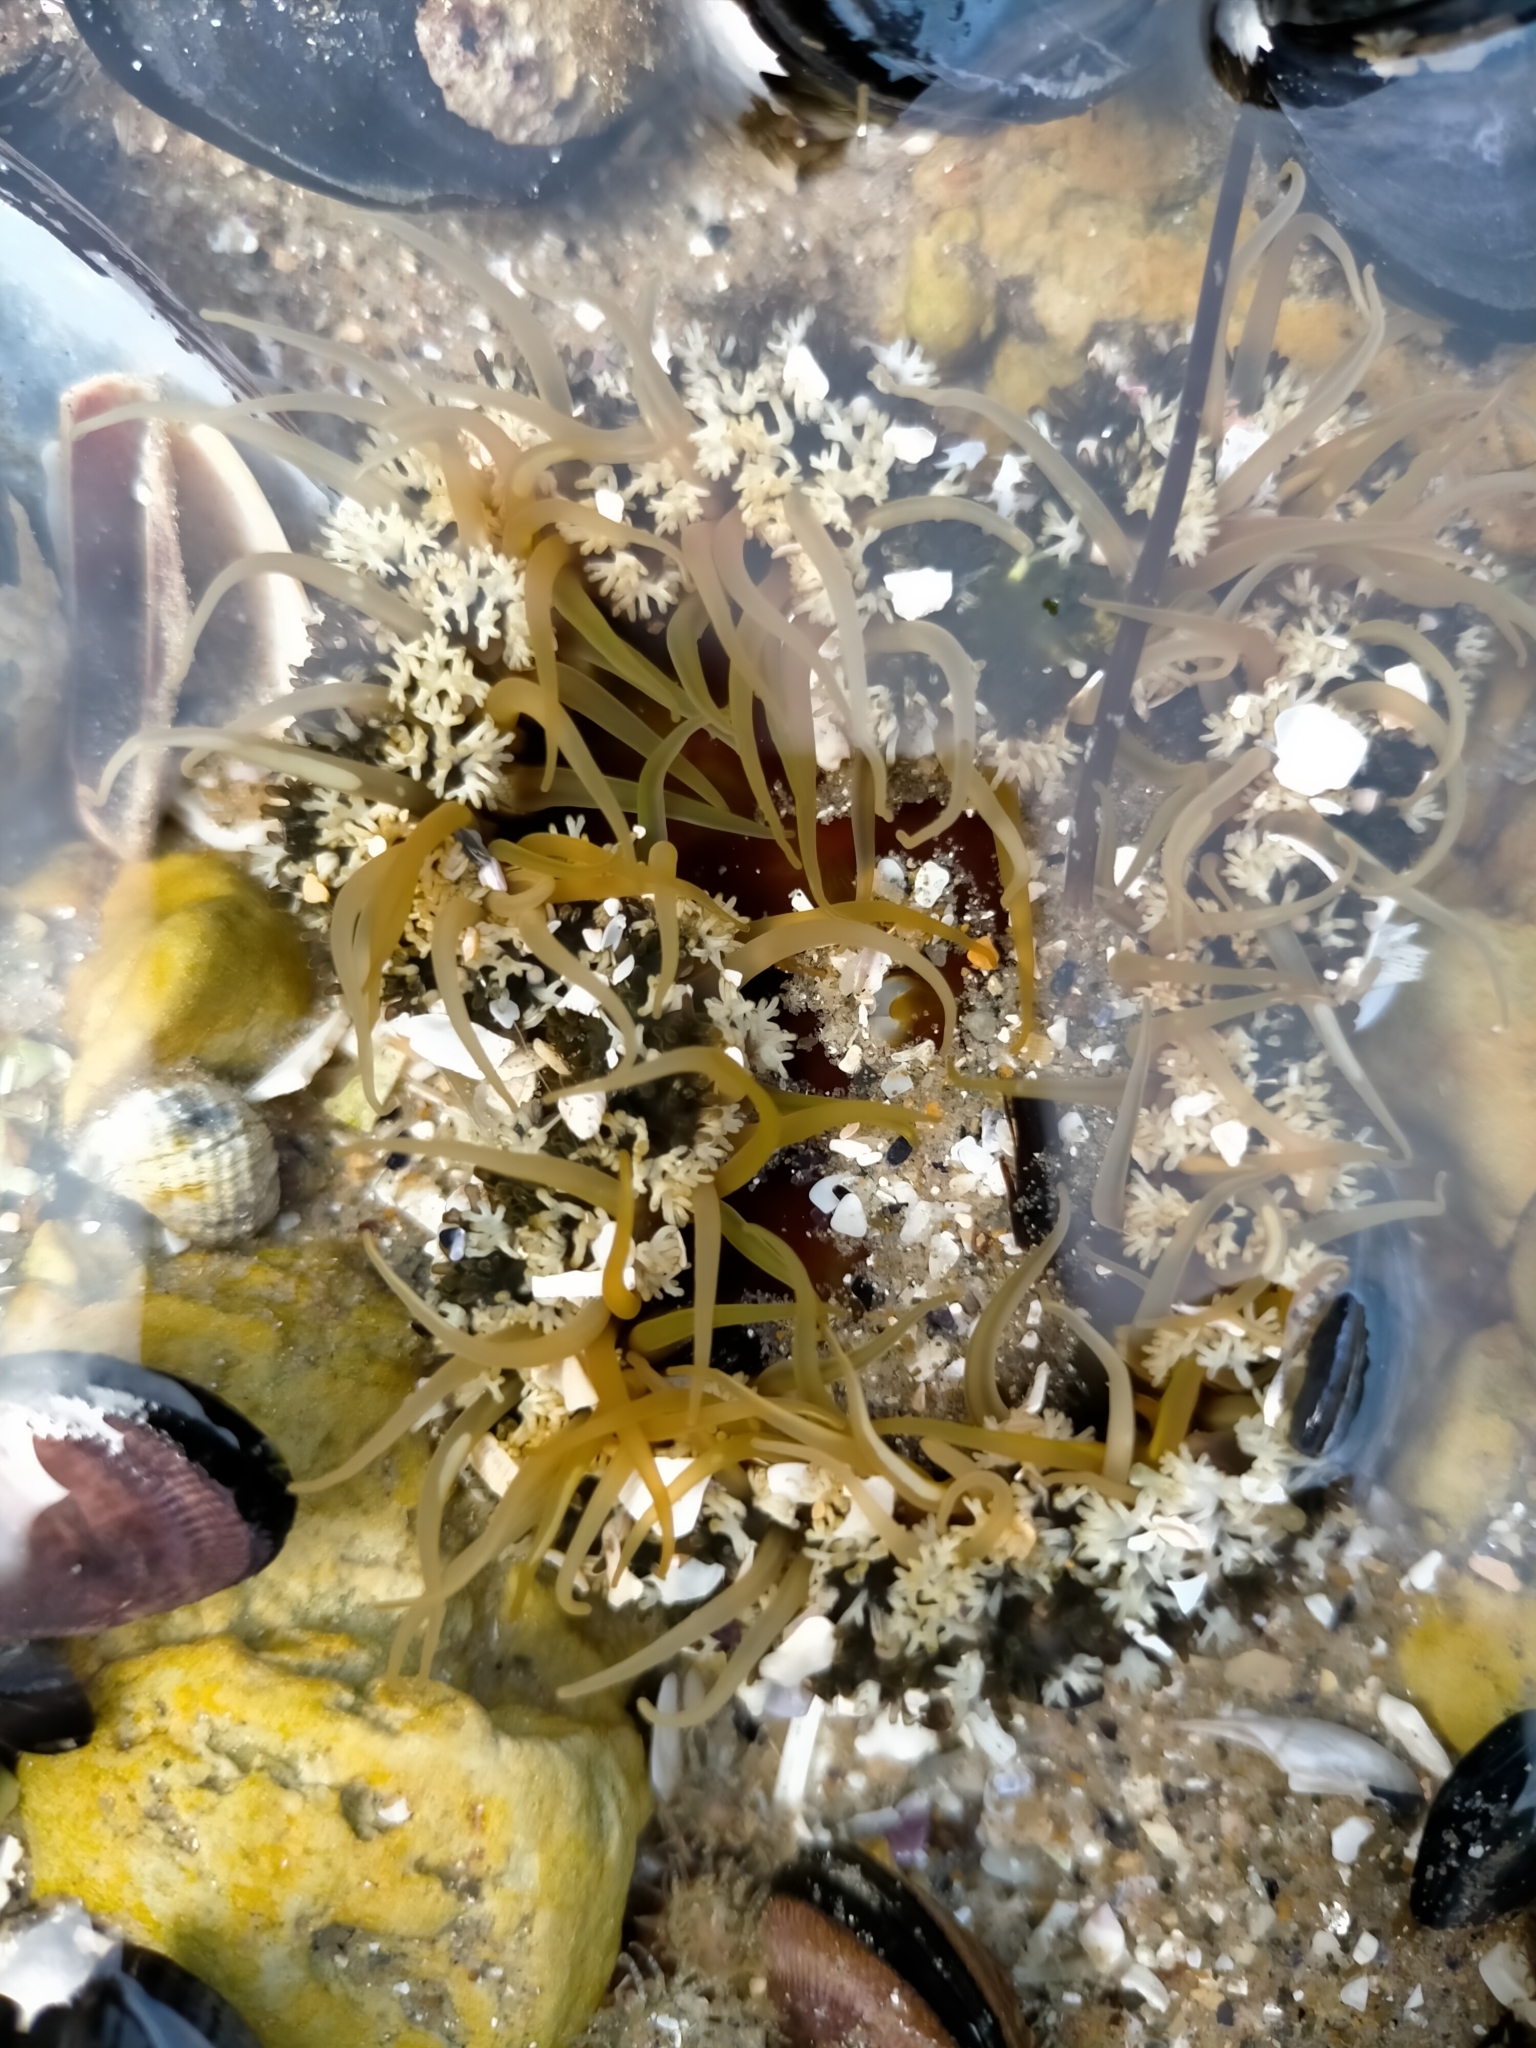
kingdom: Animalia
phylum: Cnidaria
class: Anthozoa
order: Actiniaria
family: Actiniidae
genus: Oulactis
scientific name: Oulactis muscosa
